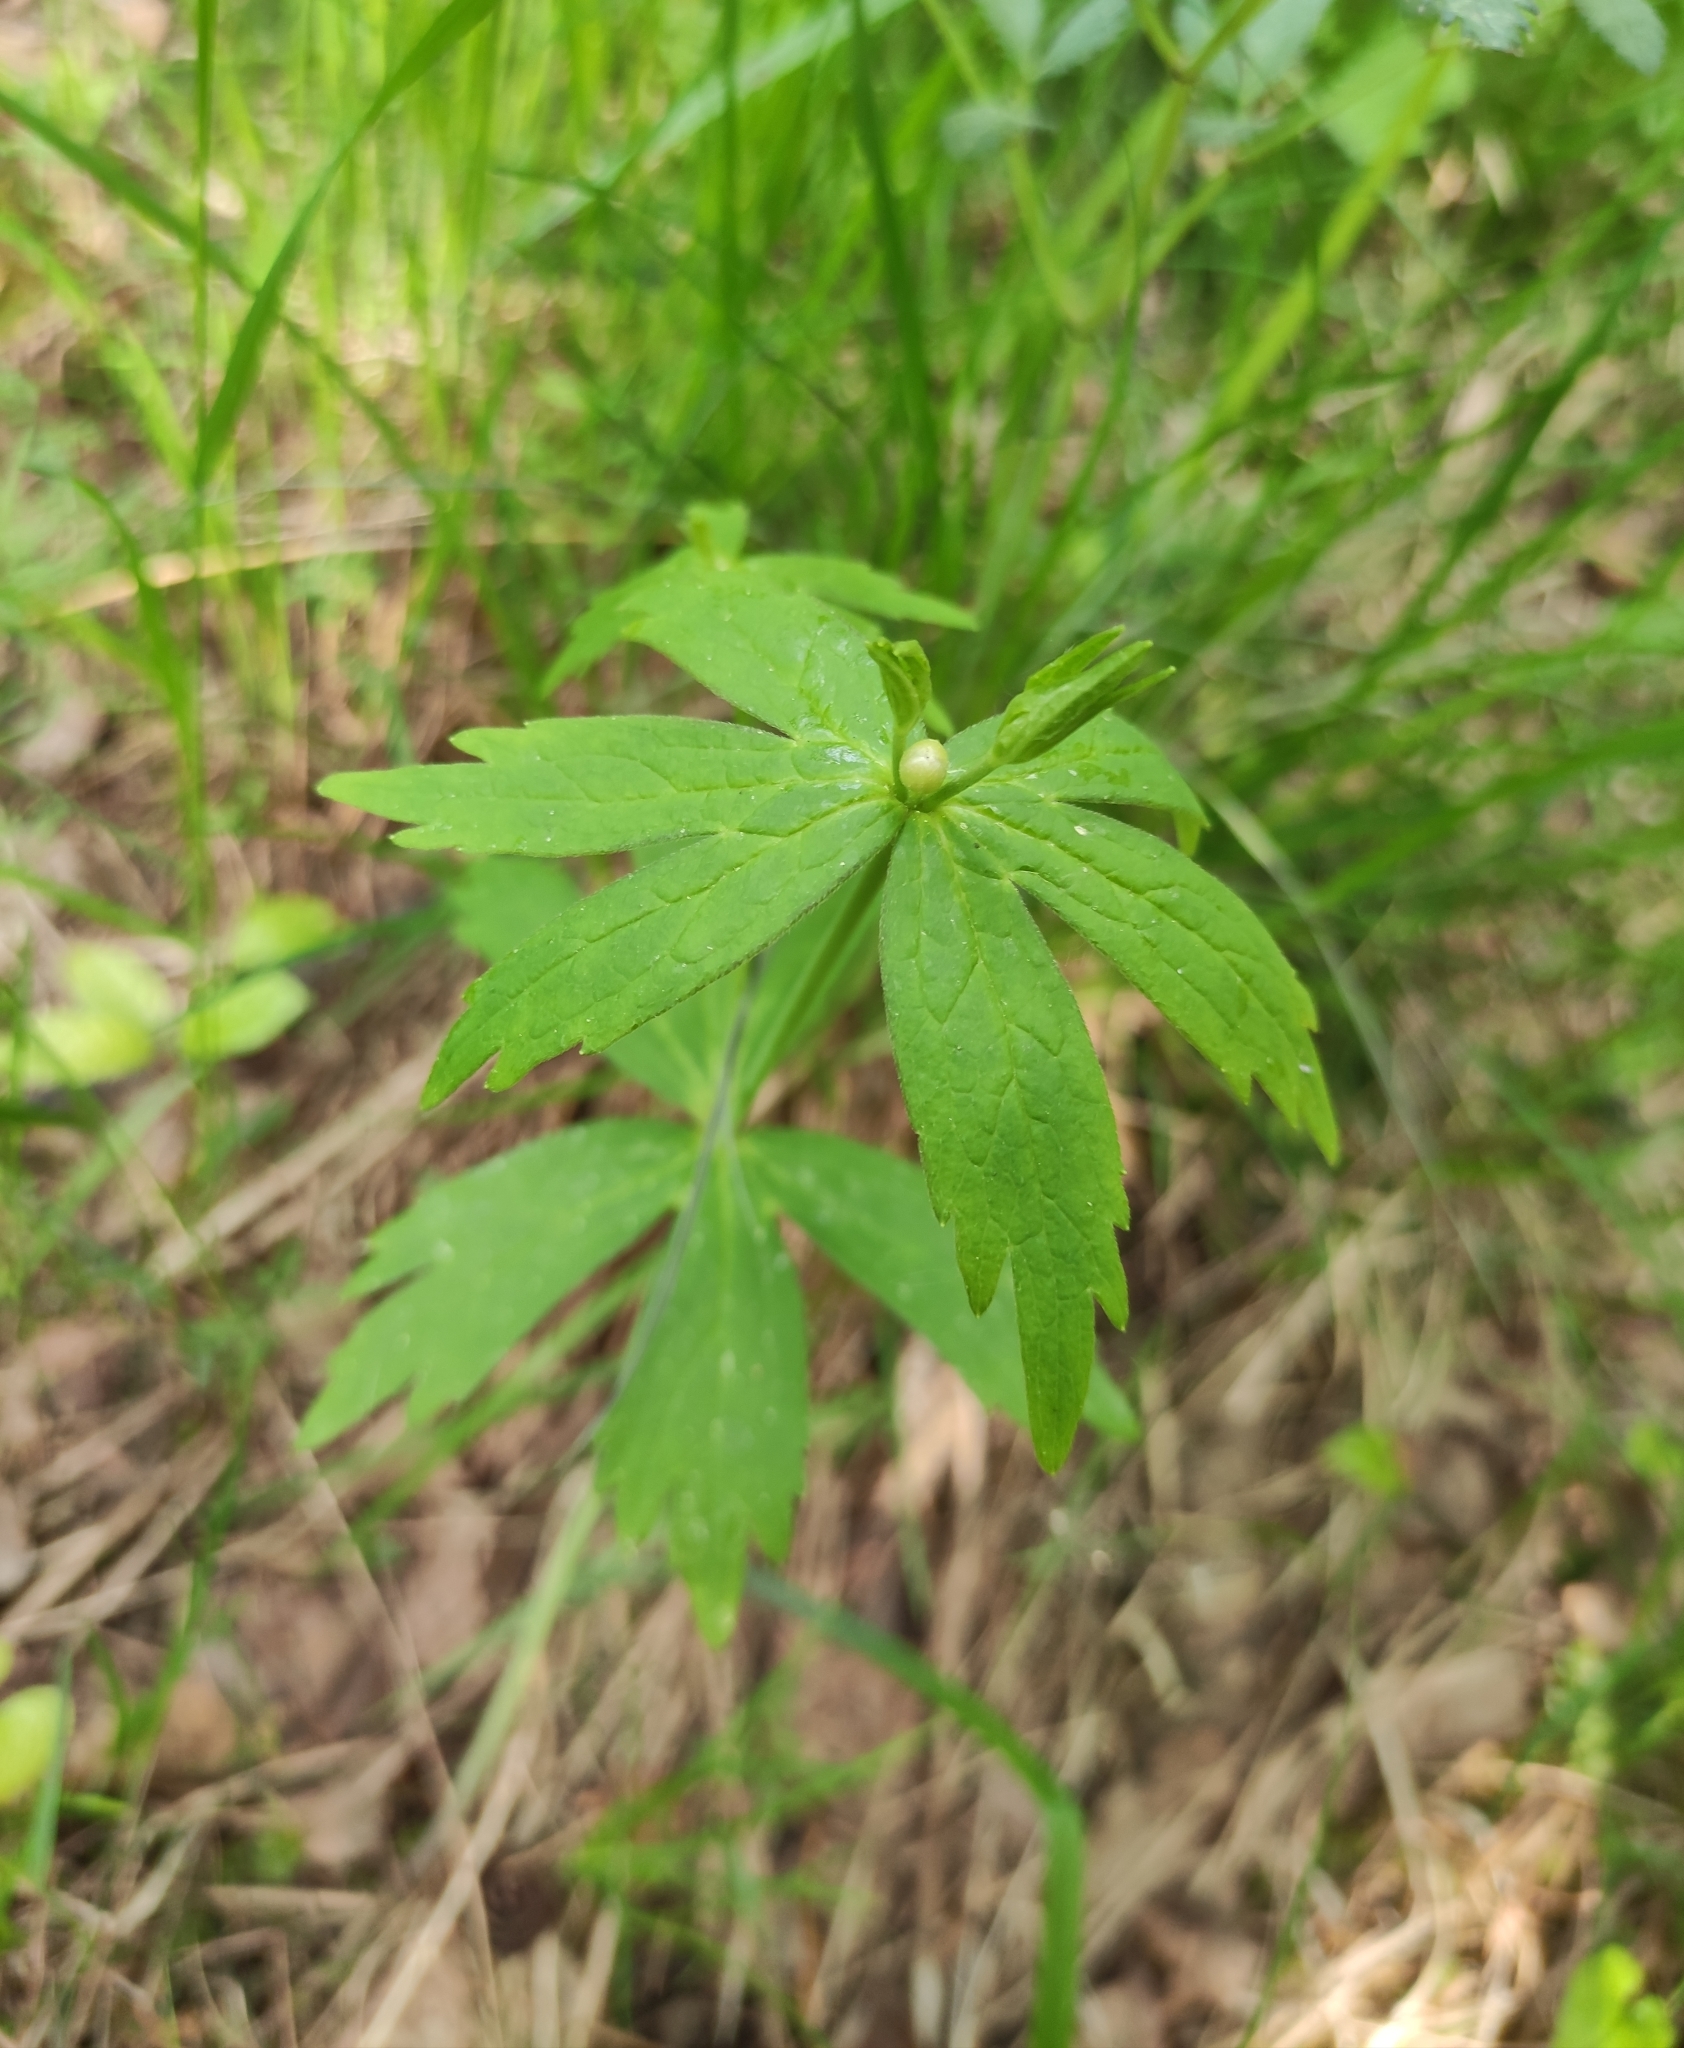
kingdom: Plantae
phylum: Tracheophyta
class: Magnoliopsida
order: Ranunculales
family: Ranunculaceae
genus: Anemonastrum
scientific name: Anemonastrum dichotomum
